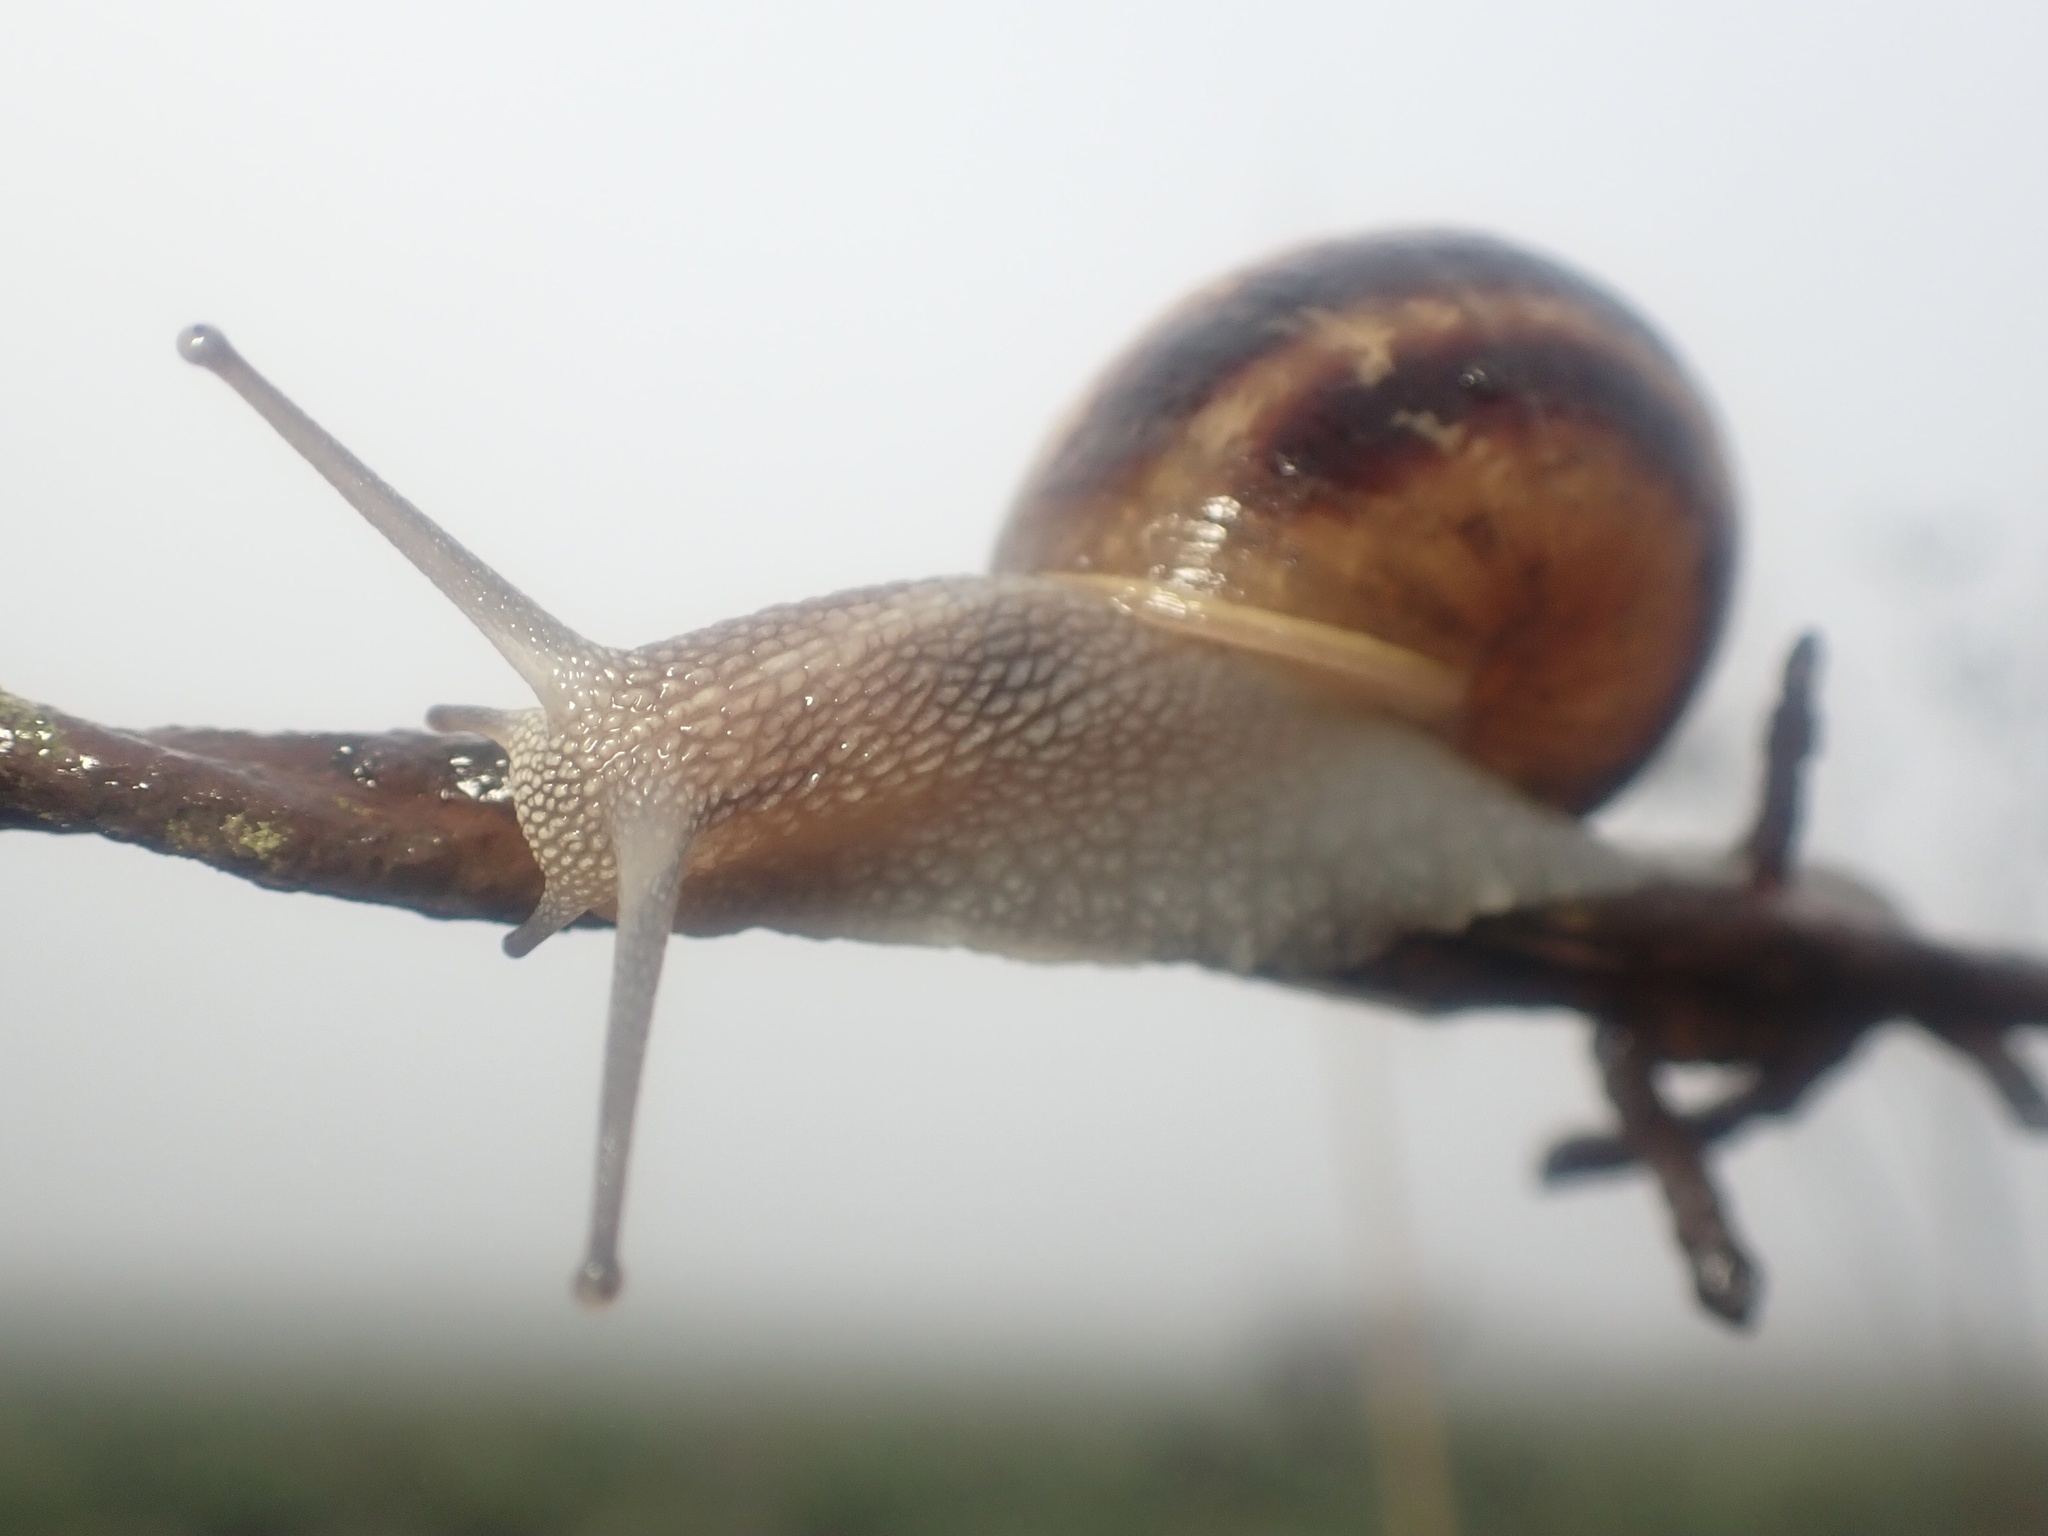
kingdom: Animalia
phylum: Mollusca
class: Gastropoda
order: Stylommatophora
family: Helicidae
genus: Cornu
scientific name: Cornu aspersum
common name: Brown garden snail
